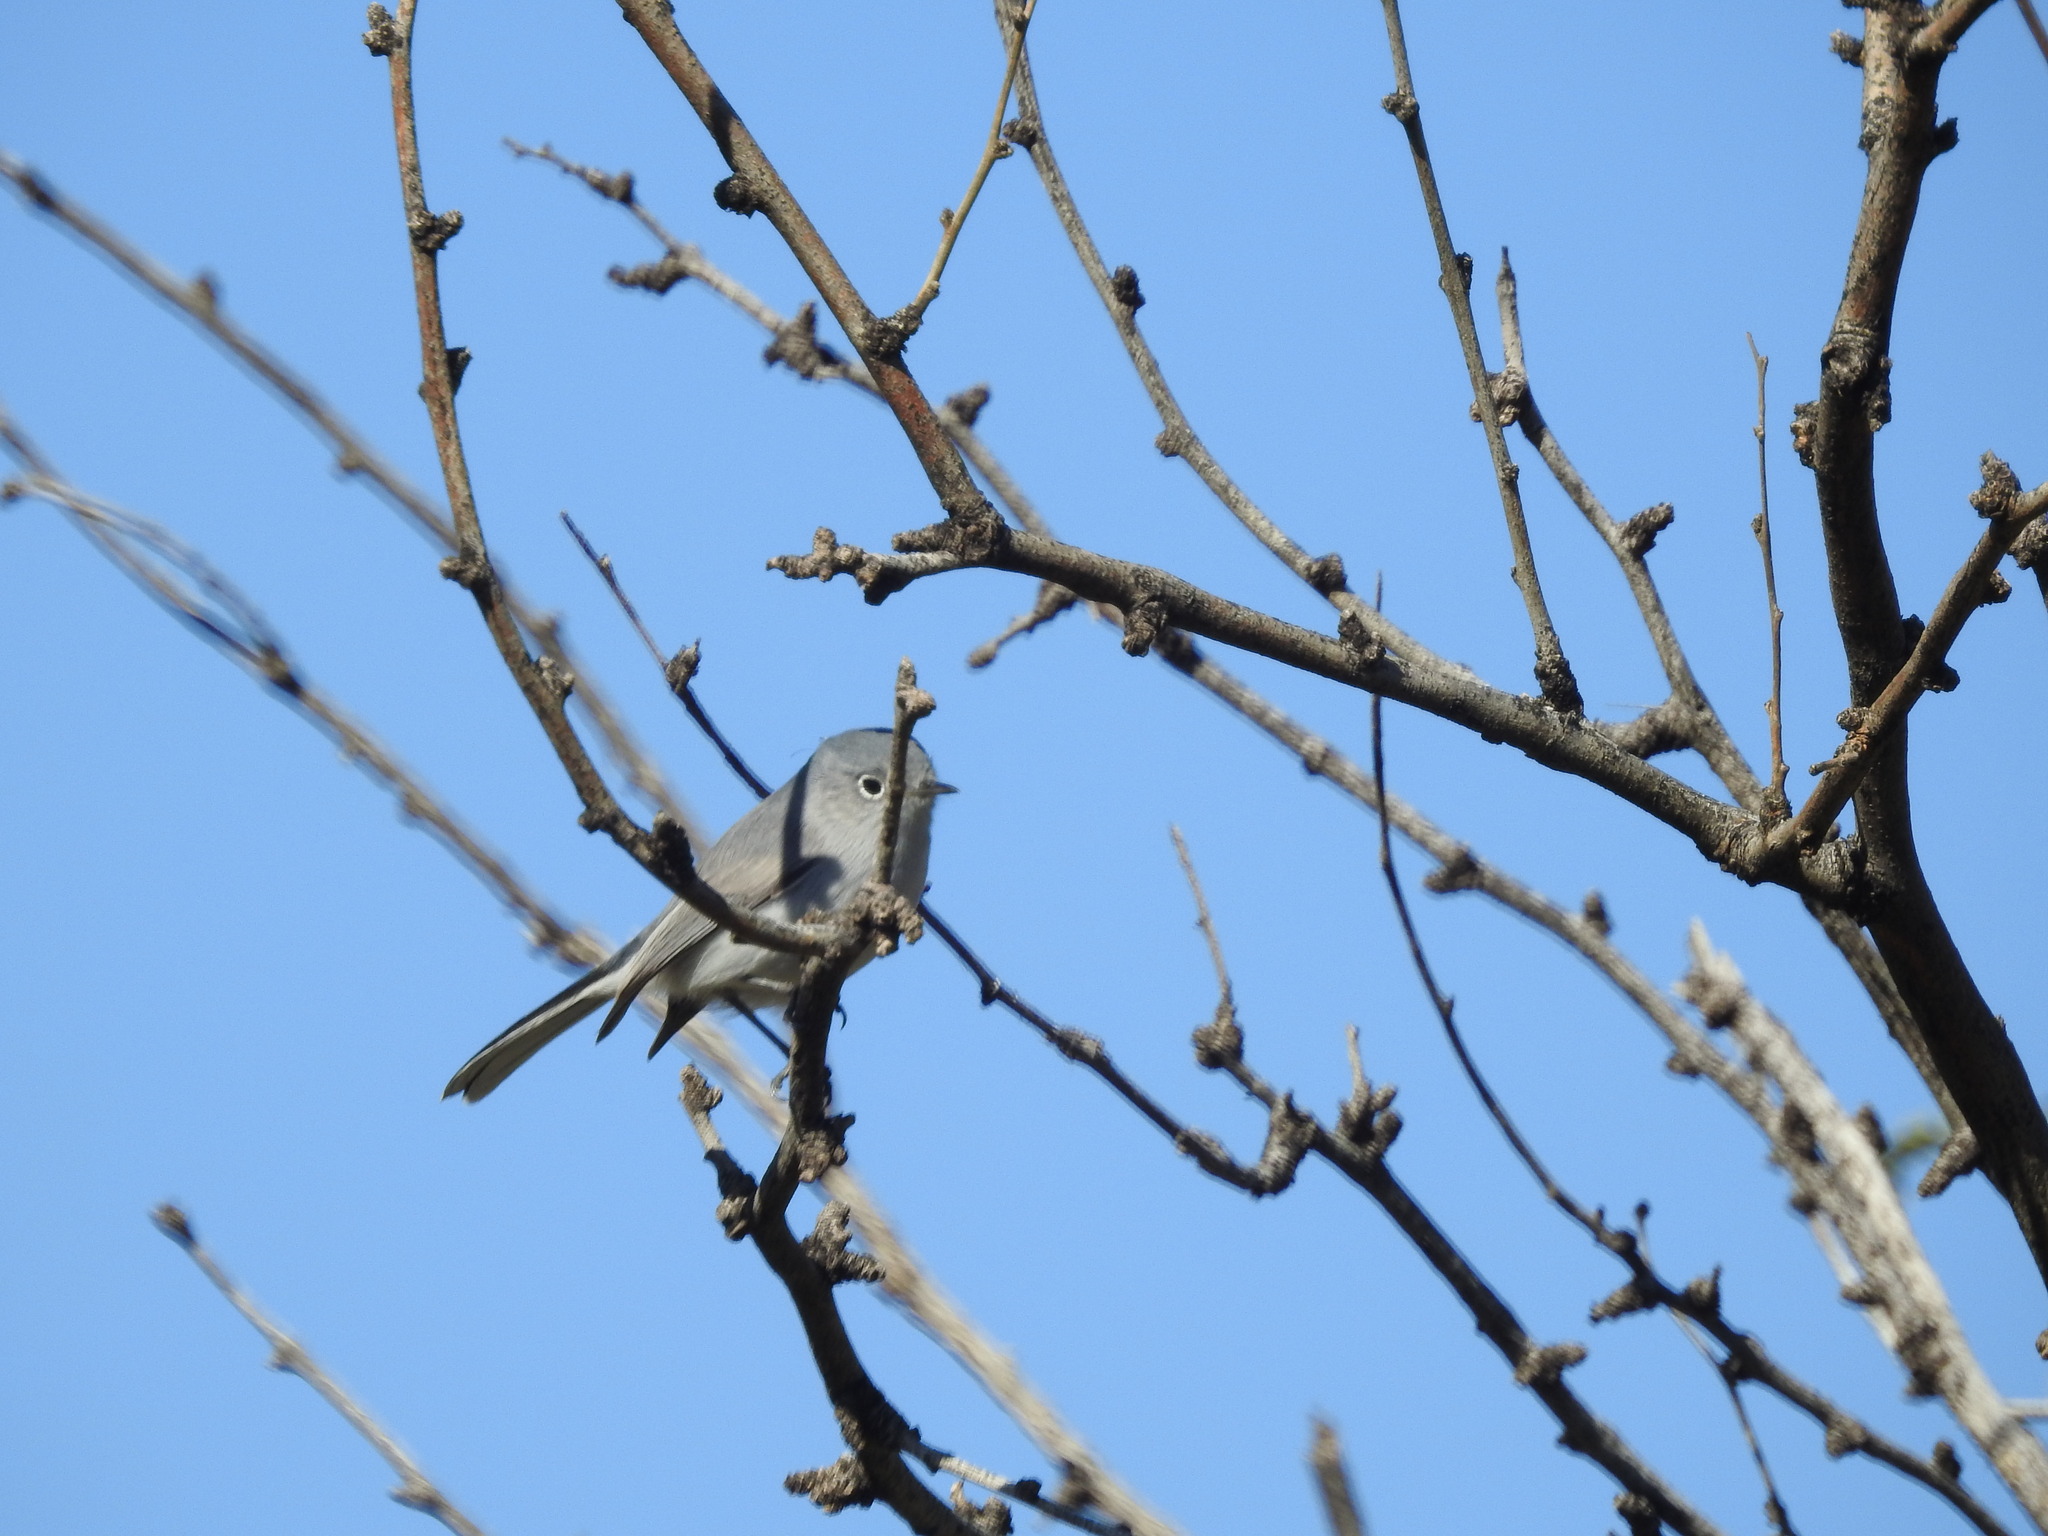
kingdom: Animalia
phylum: Chordata
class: Aves
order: Passeriformes
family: Polioptilidae
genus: Polioptila
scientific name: Polioptila caerulea
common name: Blue-gray gnatcatcher
